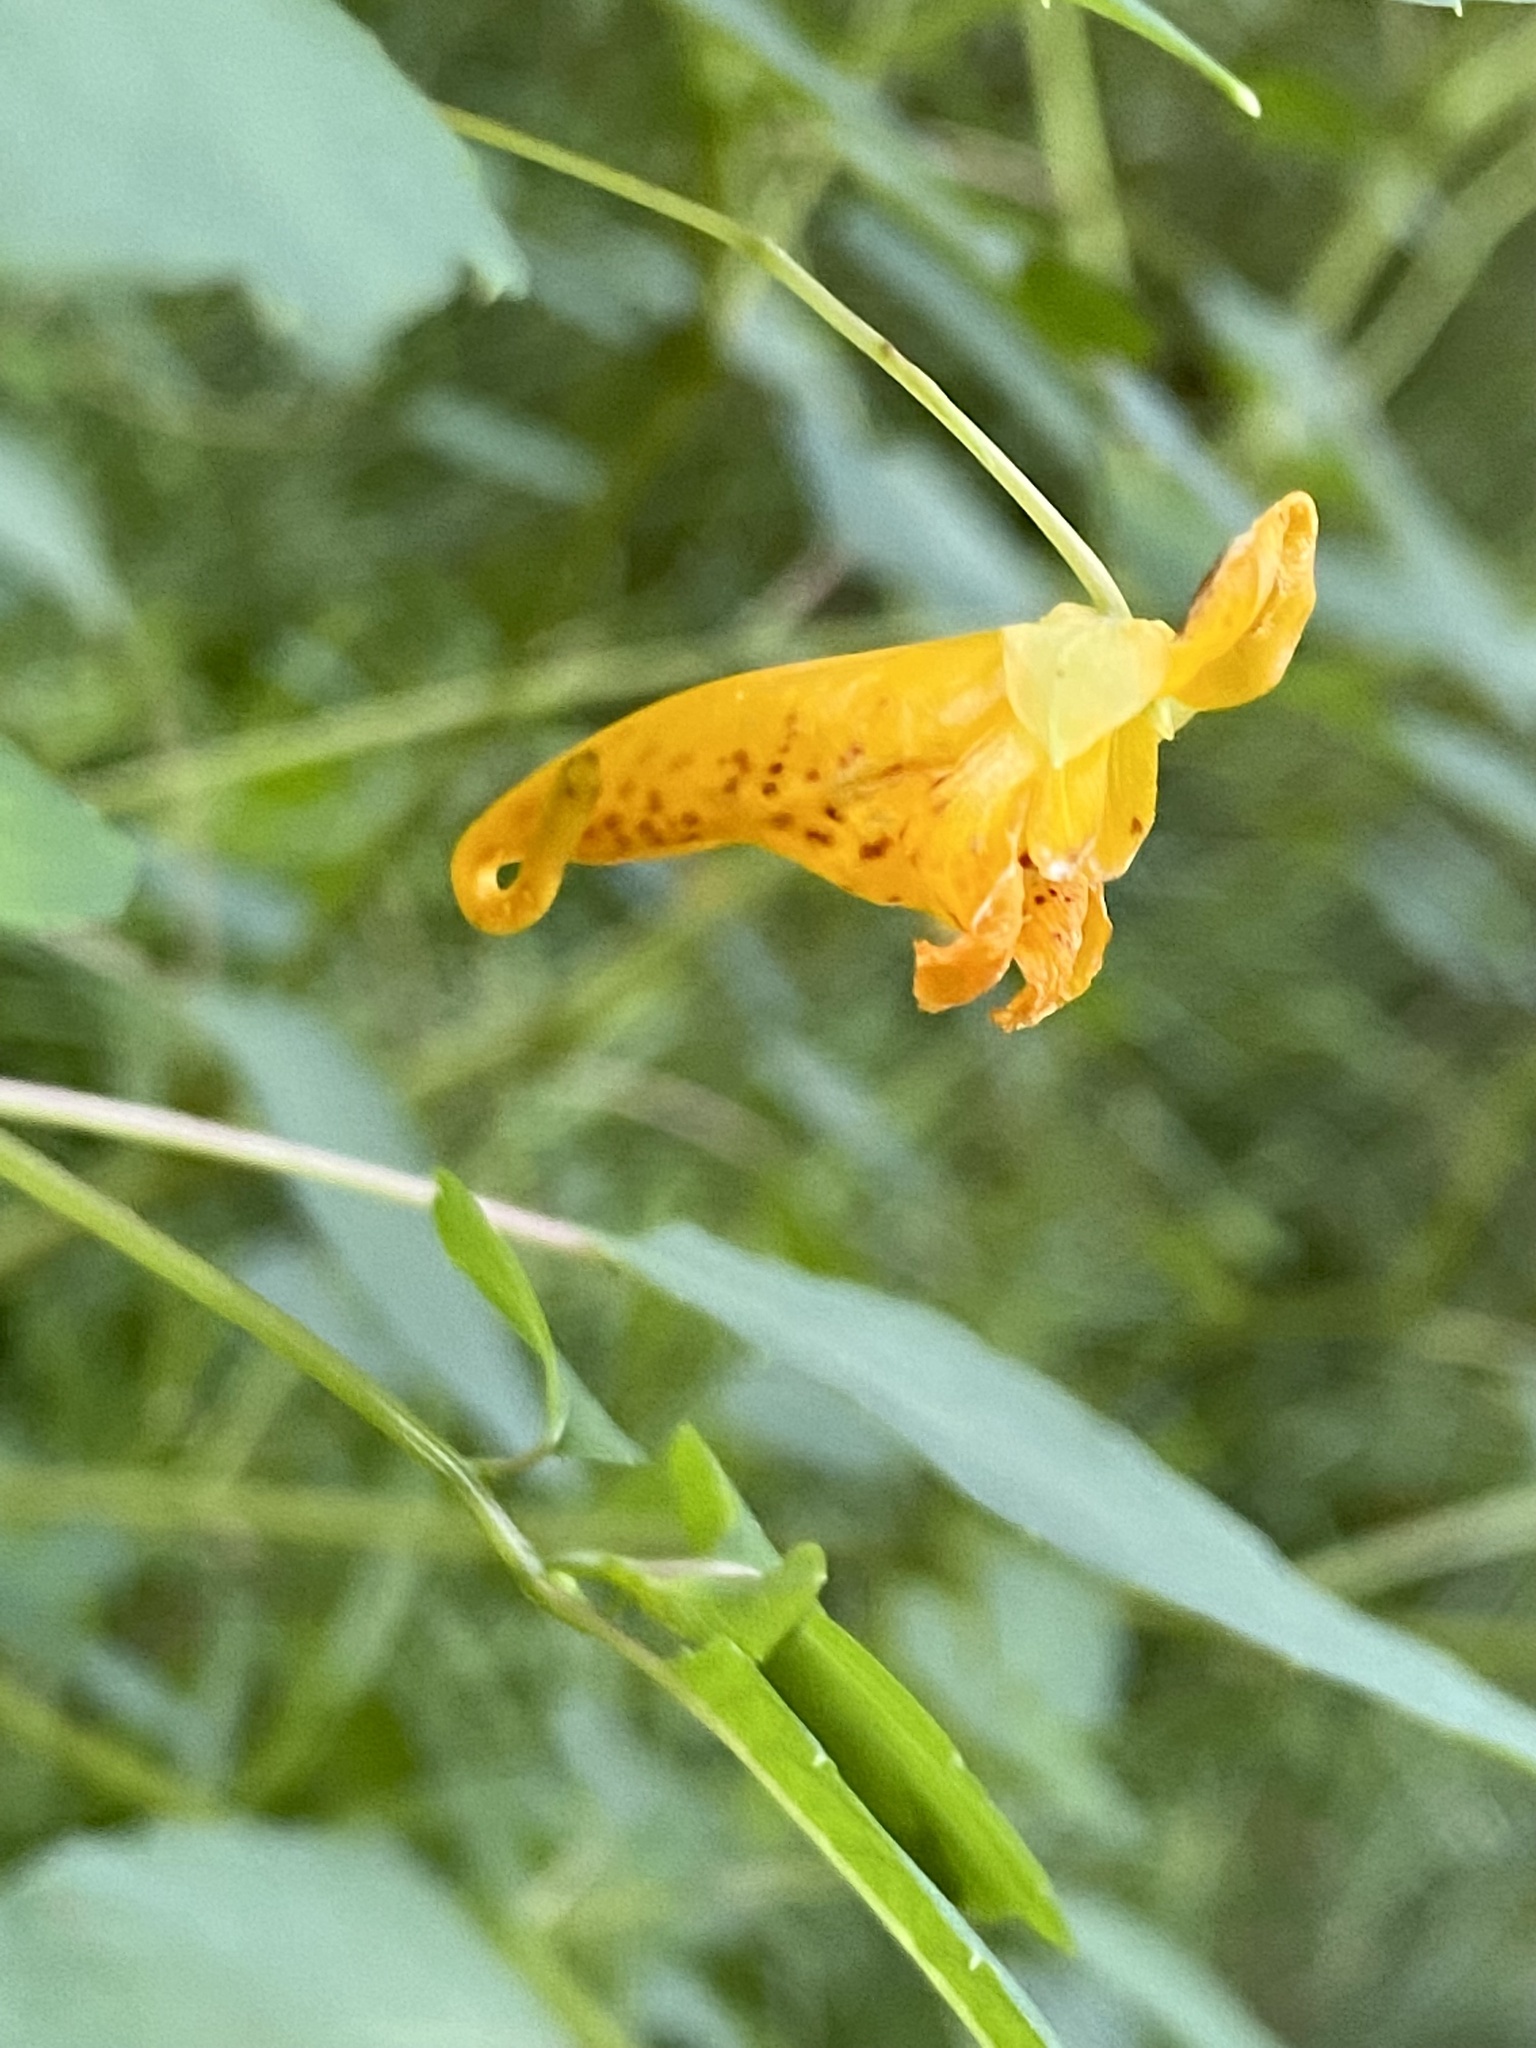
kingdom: Plantae
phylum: Tracheophyta
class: Magnoliopsida
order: Ericales
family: Balsaminaceae
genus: Impatiens
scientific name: Impatiens capensis
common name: Orange balsam
